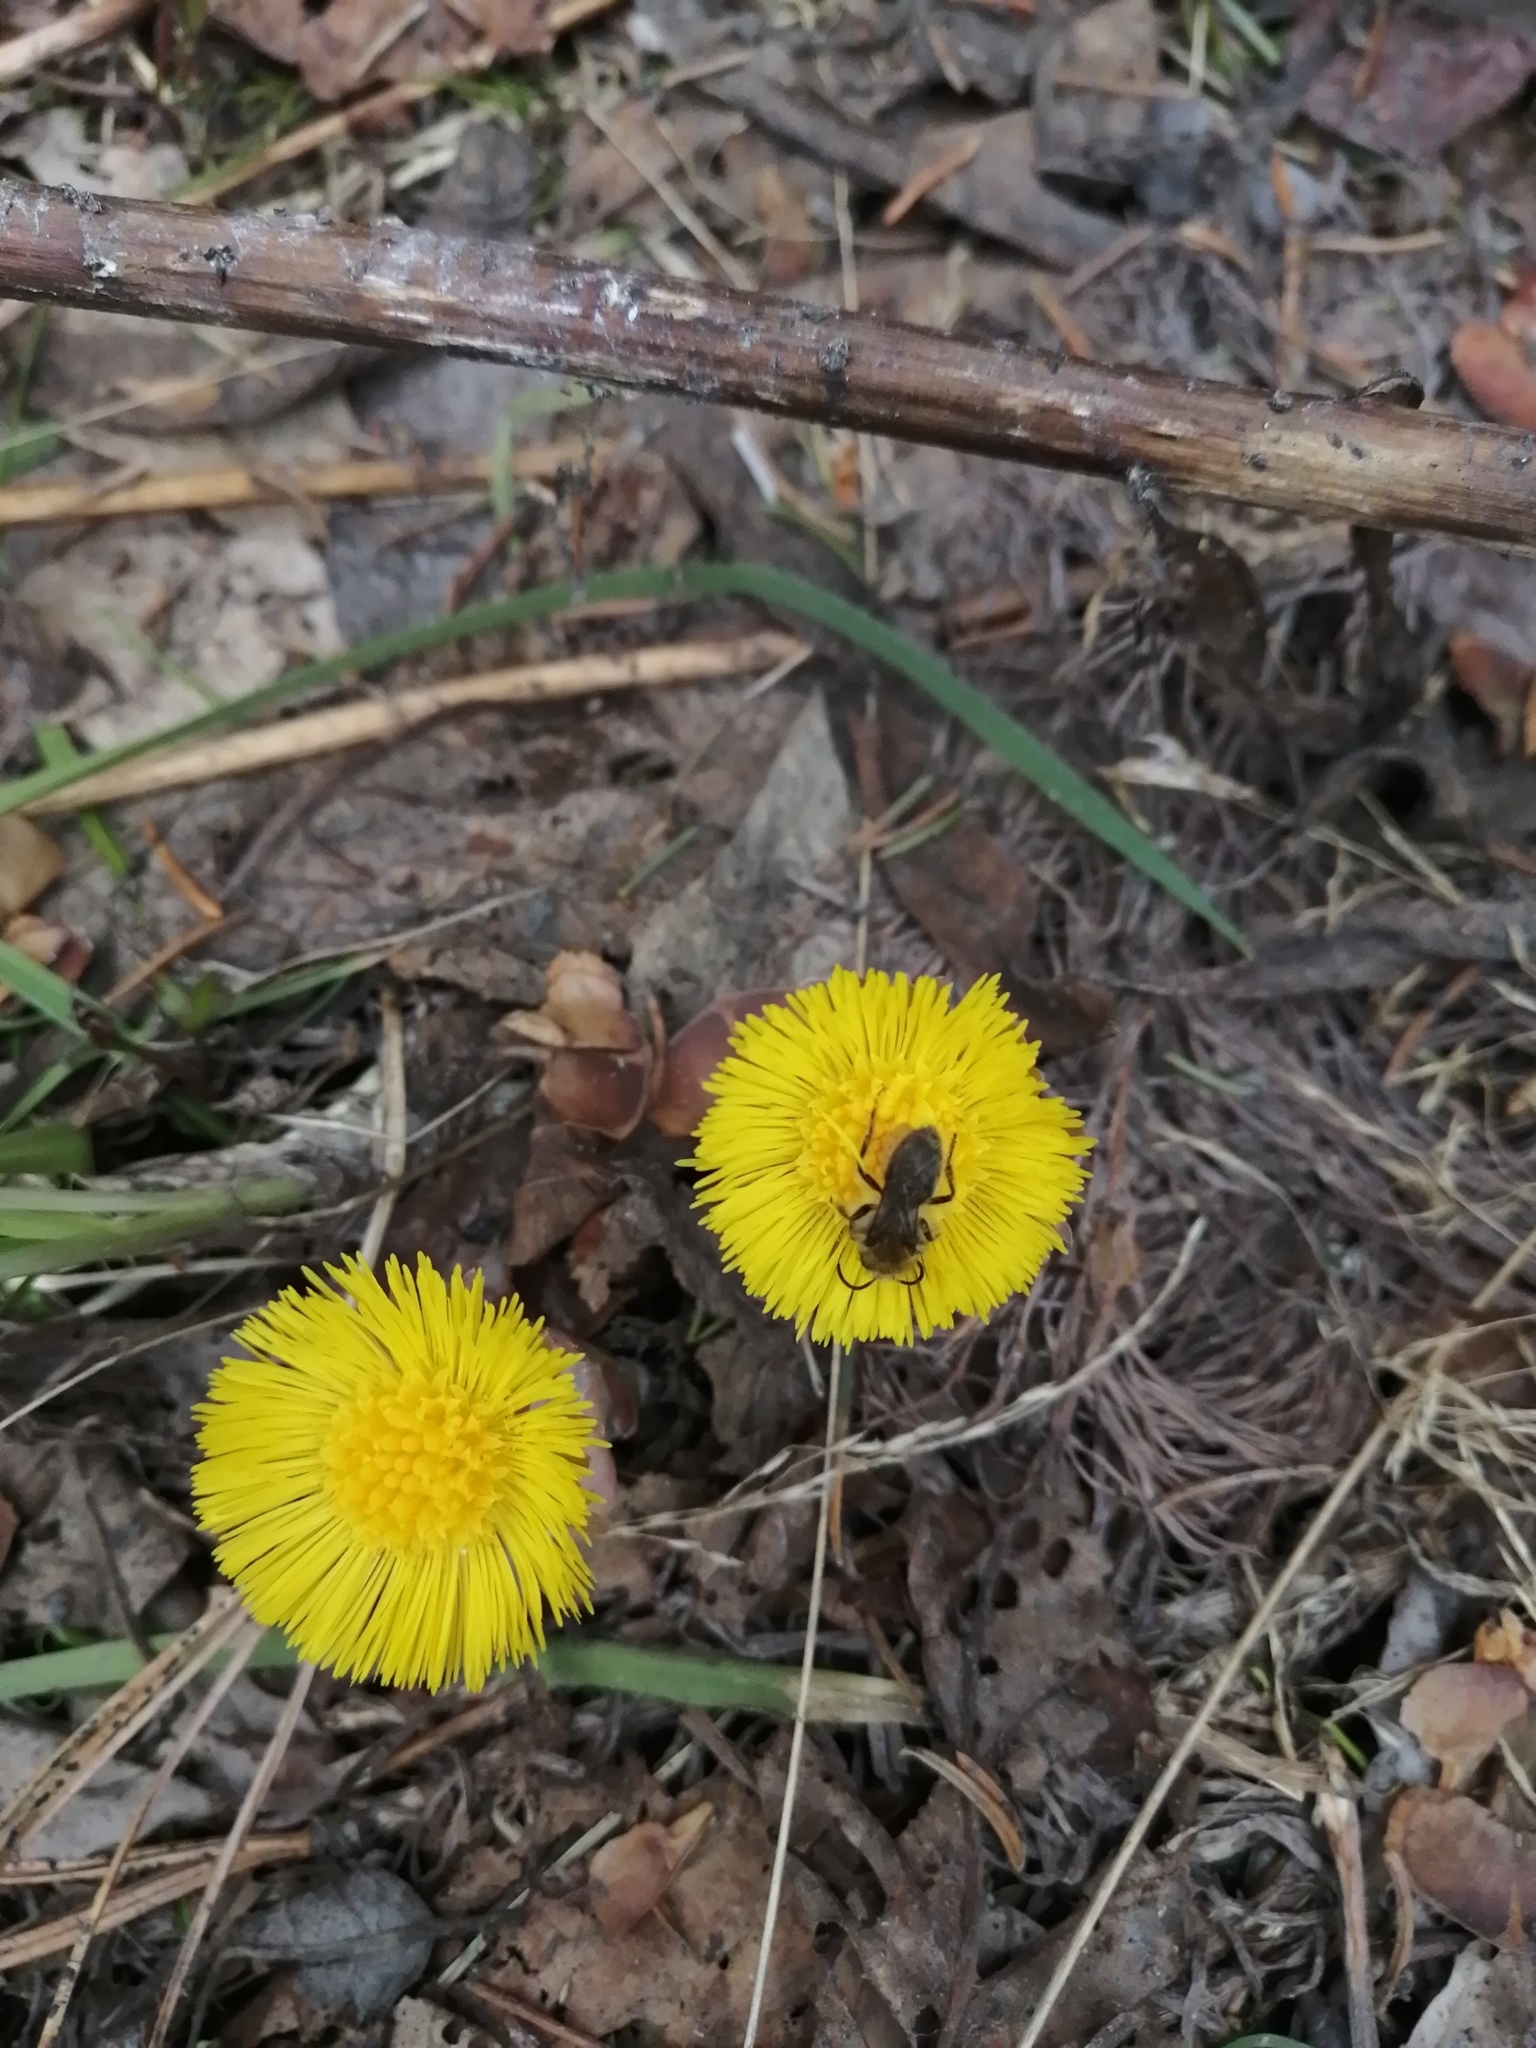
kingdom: Plantae
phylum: Tracheophyta
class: Magnoliopsida
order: Asterales
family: Asteraceae
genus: Tussilago
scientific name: Tussilago farfara
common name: Coltsfoot
